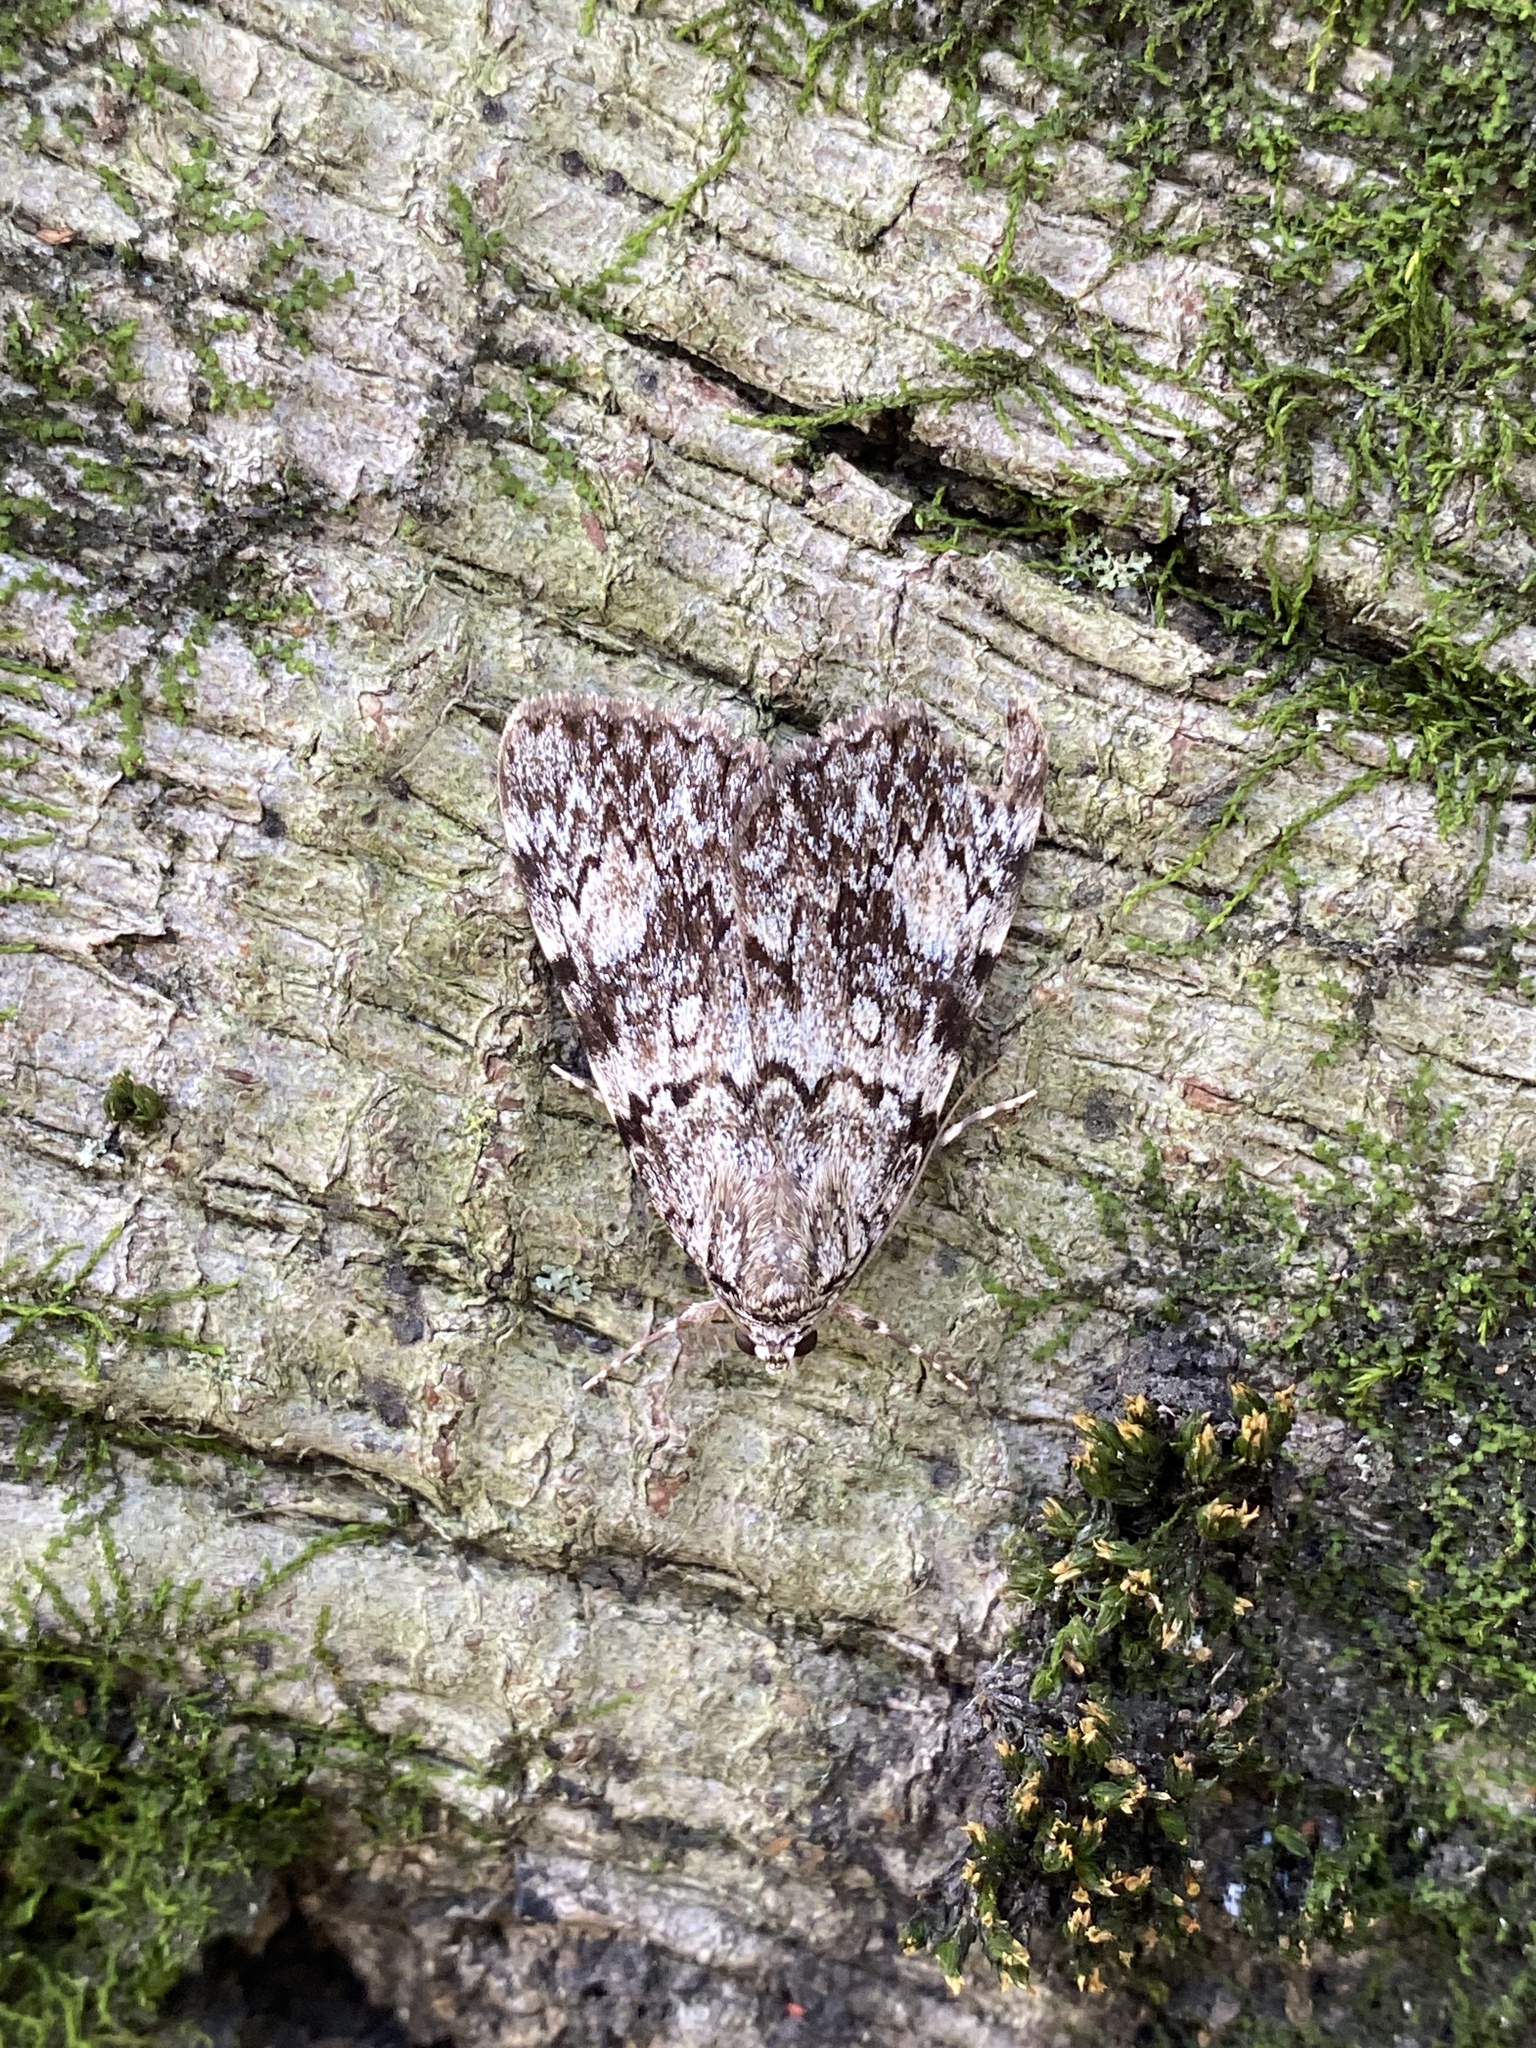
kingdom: Animalia
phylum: Arthropoda
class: Insecta
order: Lepidoptera
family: Erebidae
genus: Catocala
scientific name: Catocala lineella
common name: Little lined underwing
